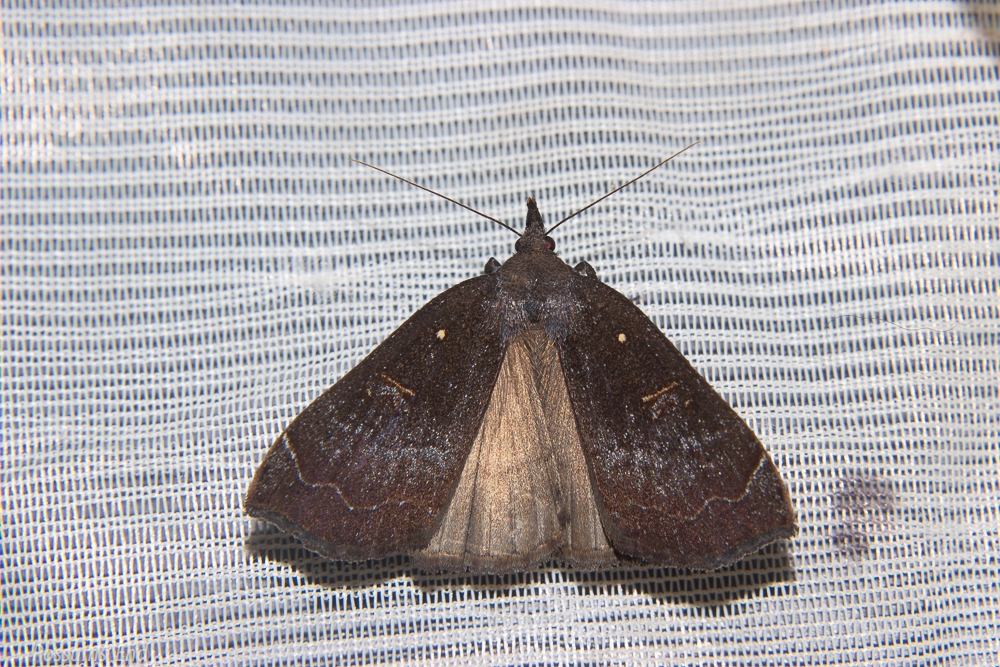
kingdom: Animalia
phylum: Arthropoda
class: Insecta
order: Lepidoptera
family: Erebidae
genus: Rhapsa
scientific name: Rhapsa scotosialis
